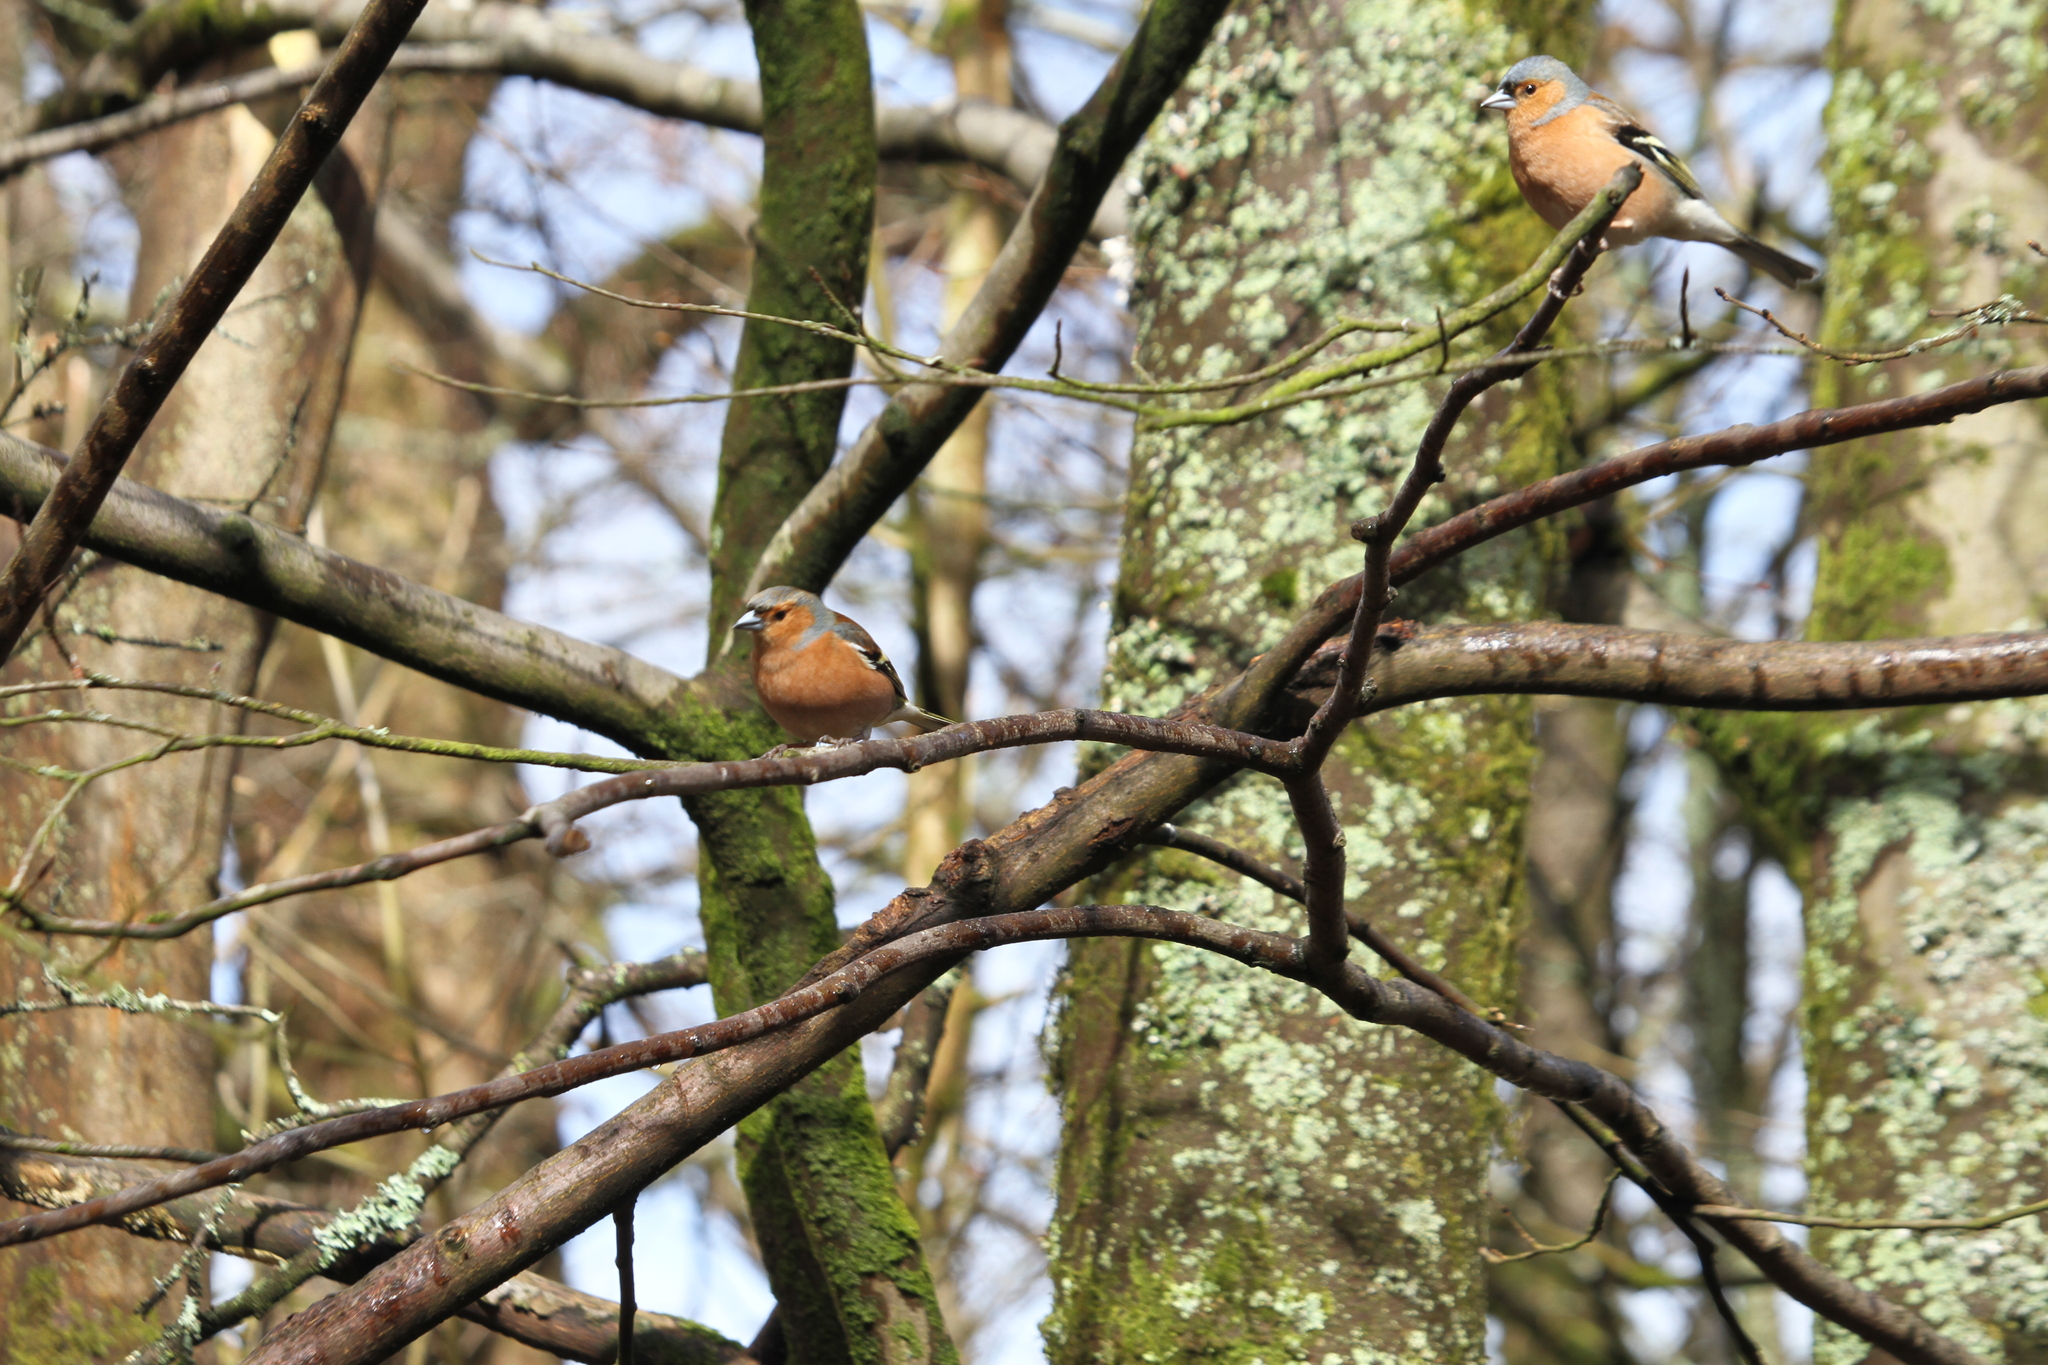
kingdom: Animalia
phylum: Chordata
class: Aves
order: Passeriformes
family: Fringillidae
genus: Fringilla
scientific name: Fringilla coelebs
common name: Common chaffinch
